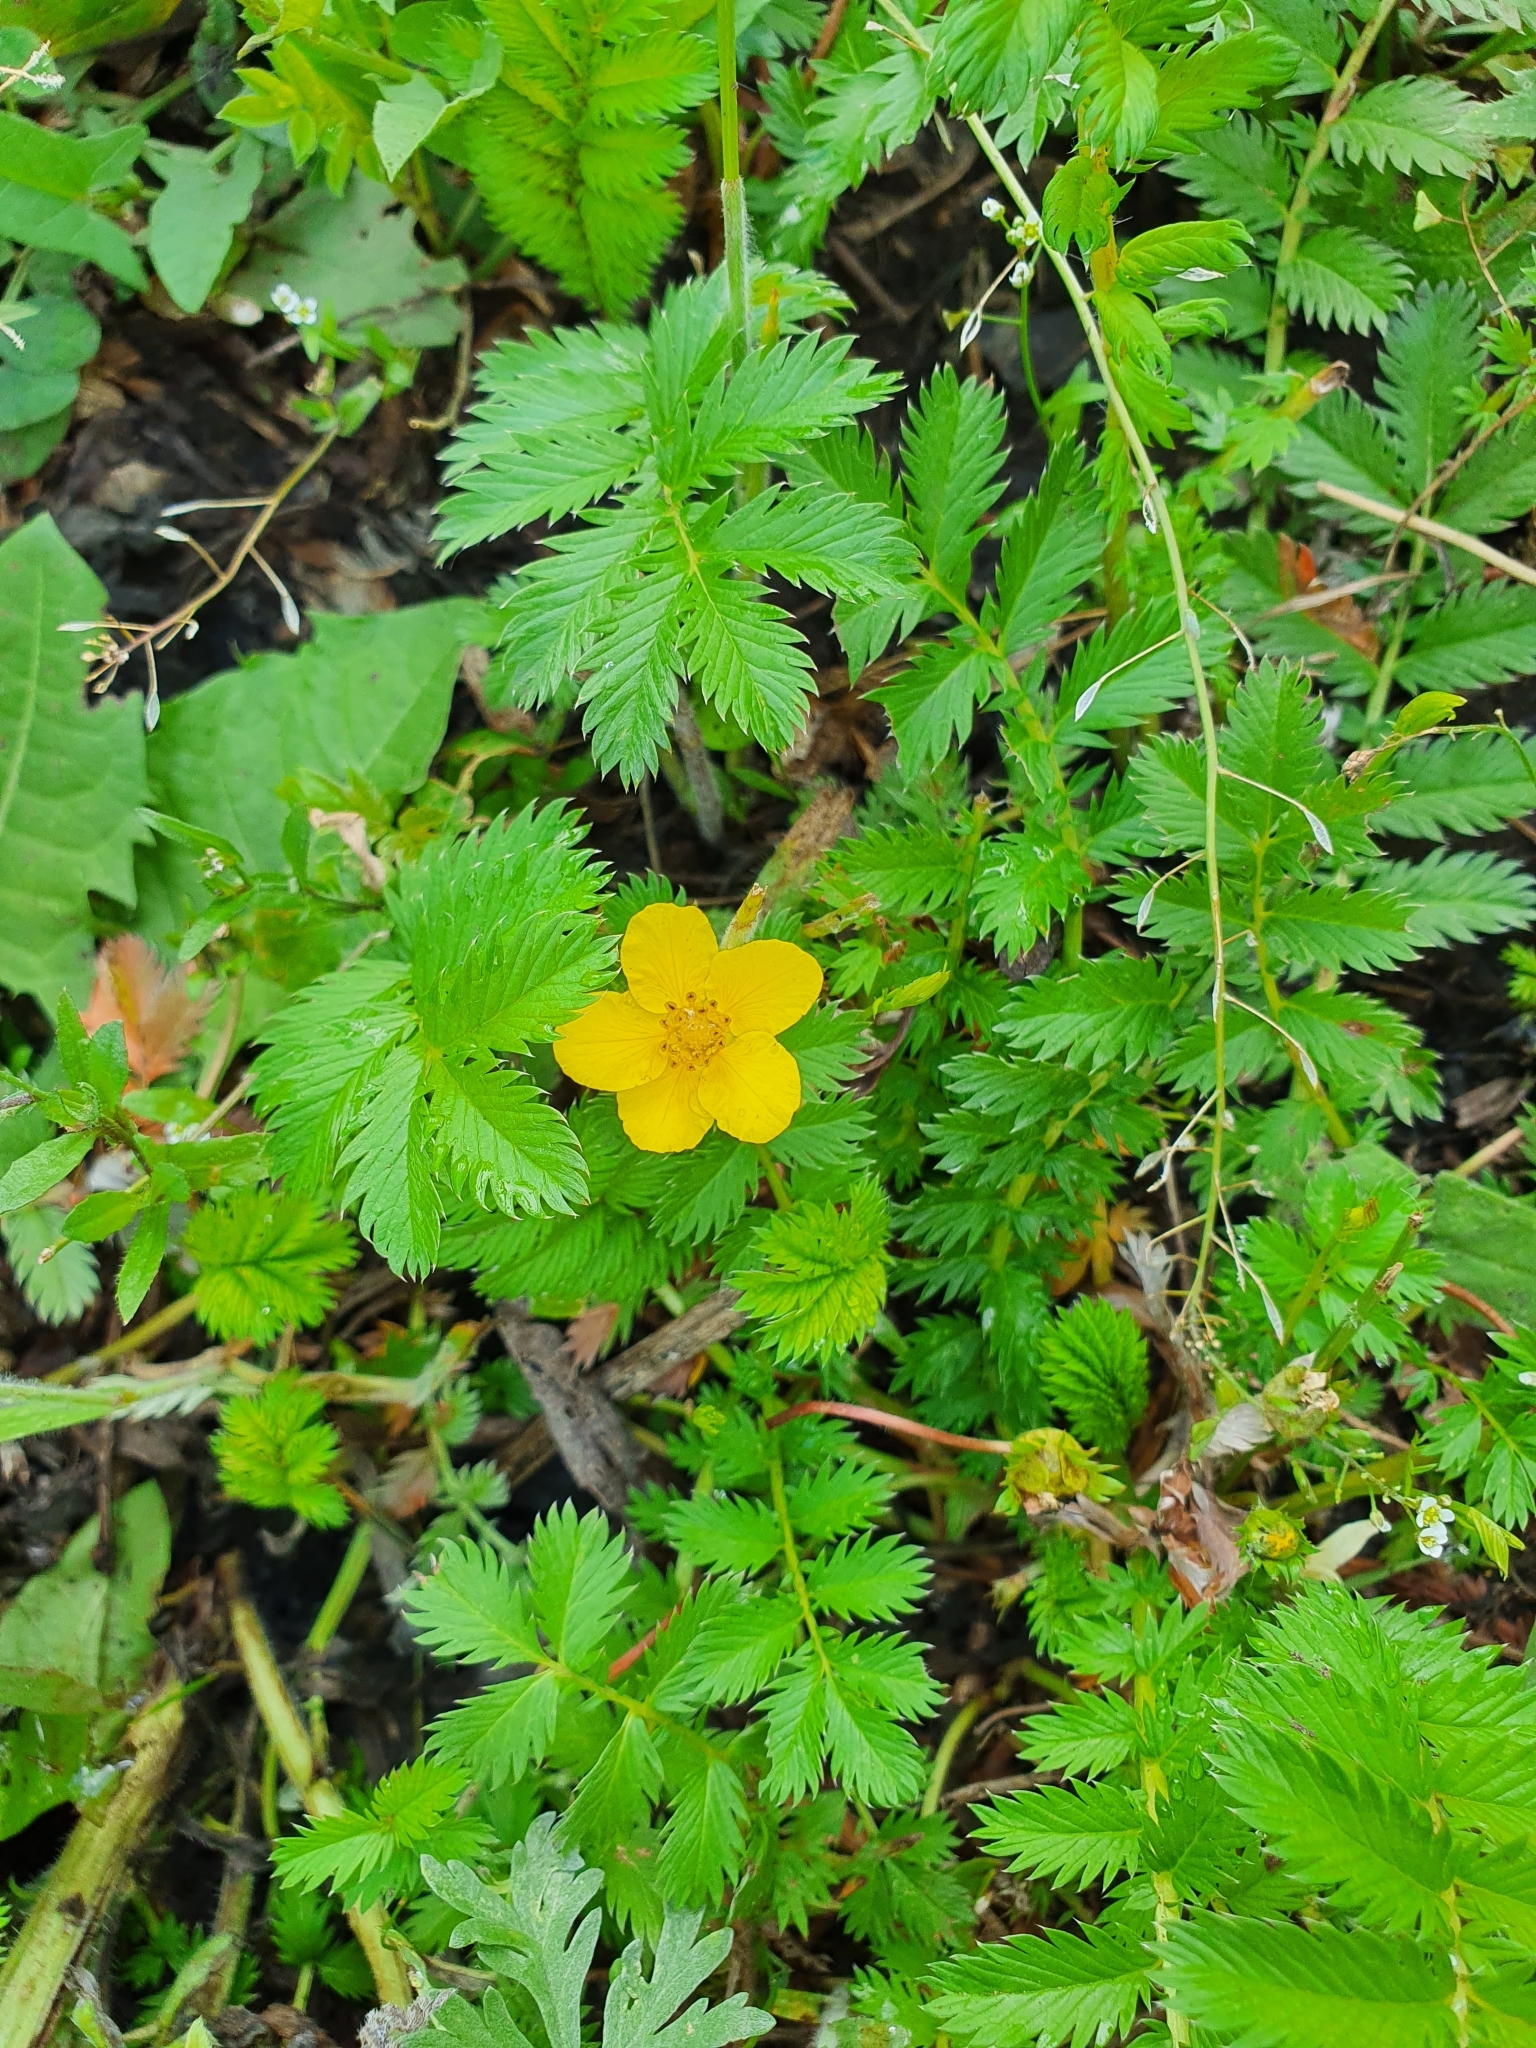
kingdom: Plantae
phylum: Tracheophyta
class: Magnoliopsida
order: Rosales
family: Rosaceae
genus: Argentina
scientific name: Argentina anserina
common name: Common silverweed
